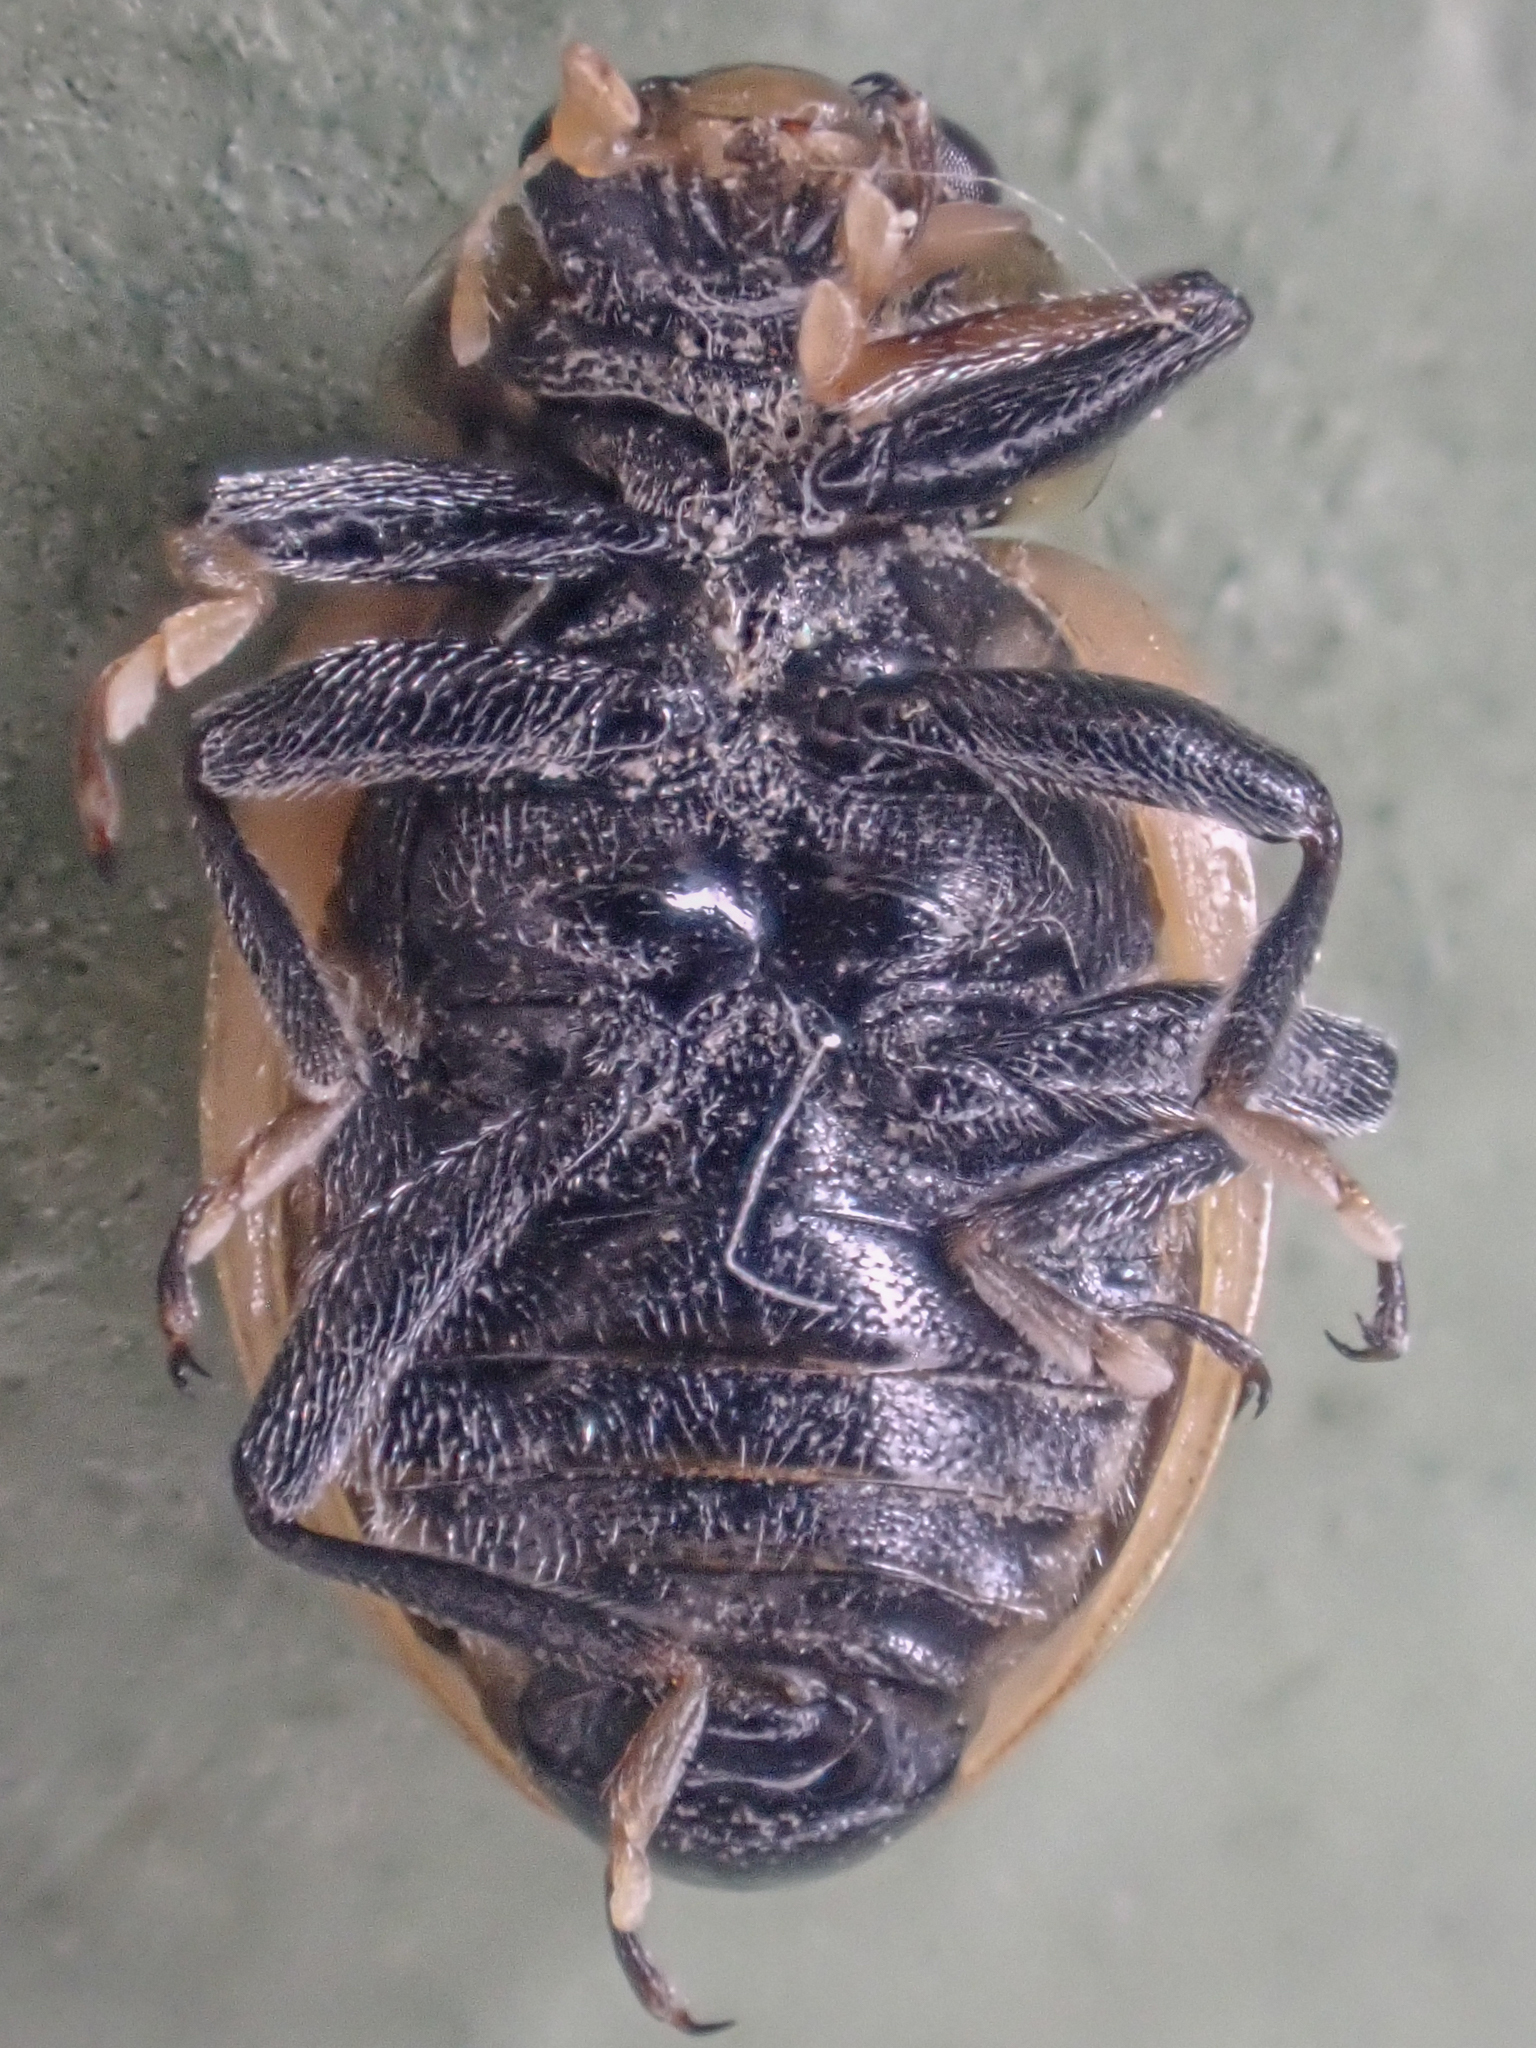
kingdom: Animalia
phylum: Arthropoda
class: Insecta
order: Coleoptera
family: Coccinellidae
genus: Hippodamia
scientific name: Hippodamia parenthesis
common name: Parenthesis lady beetle
